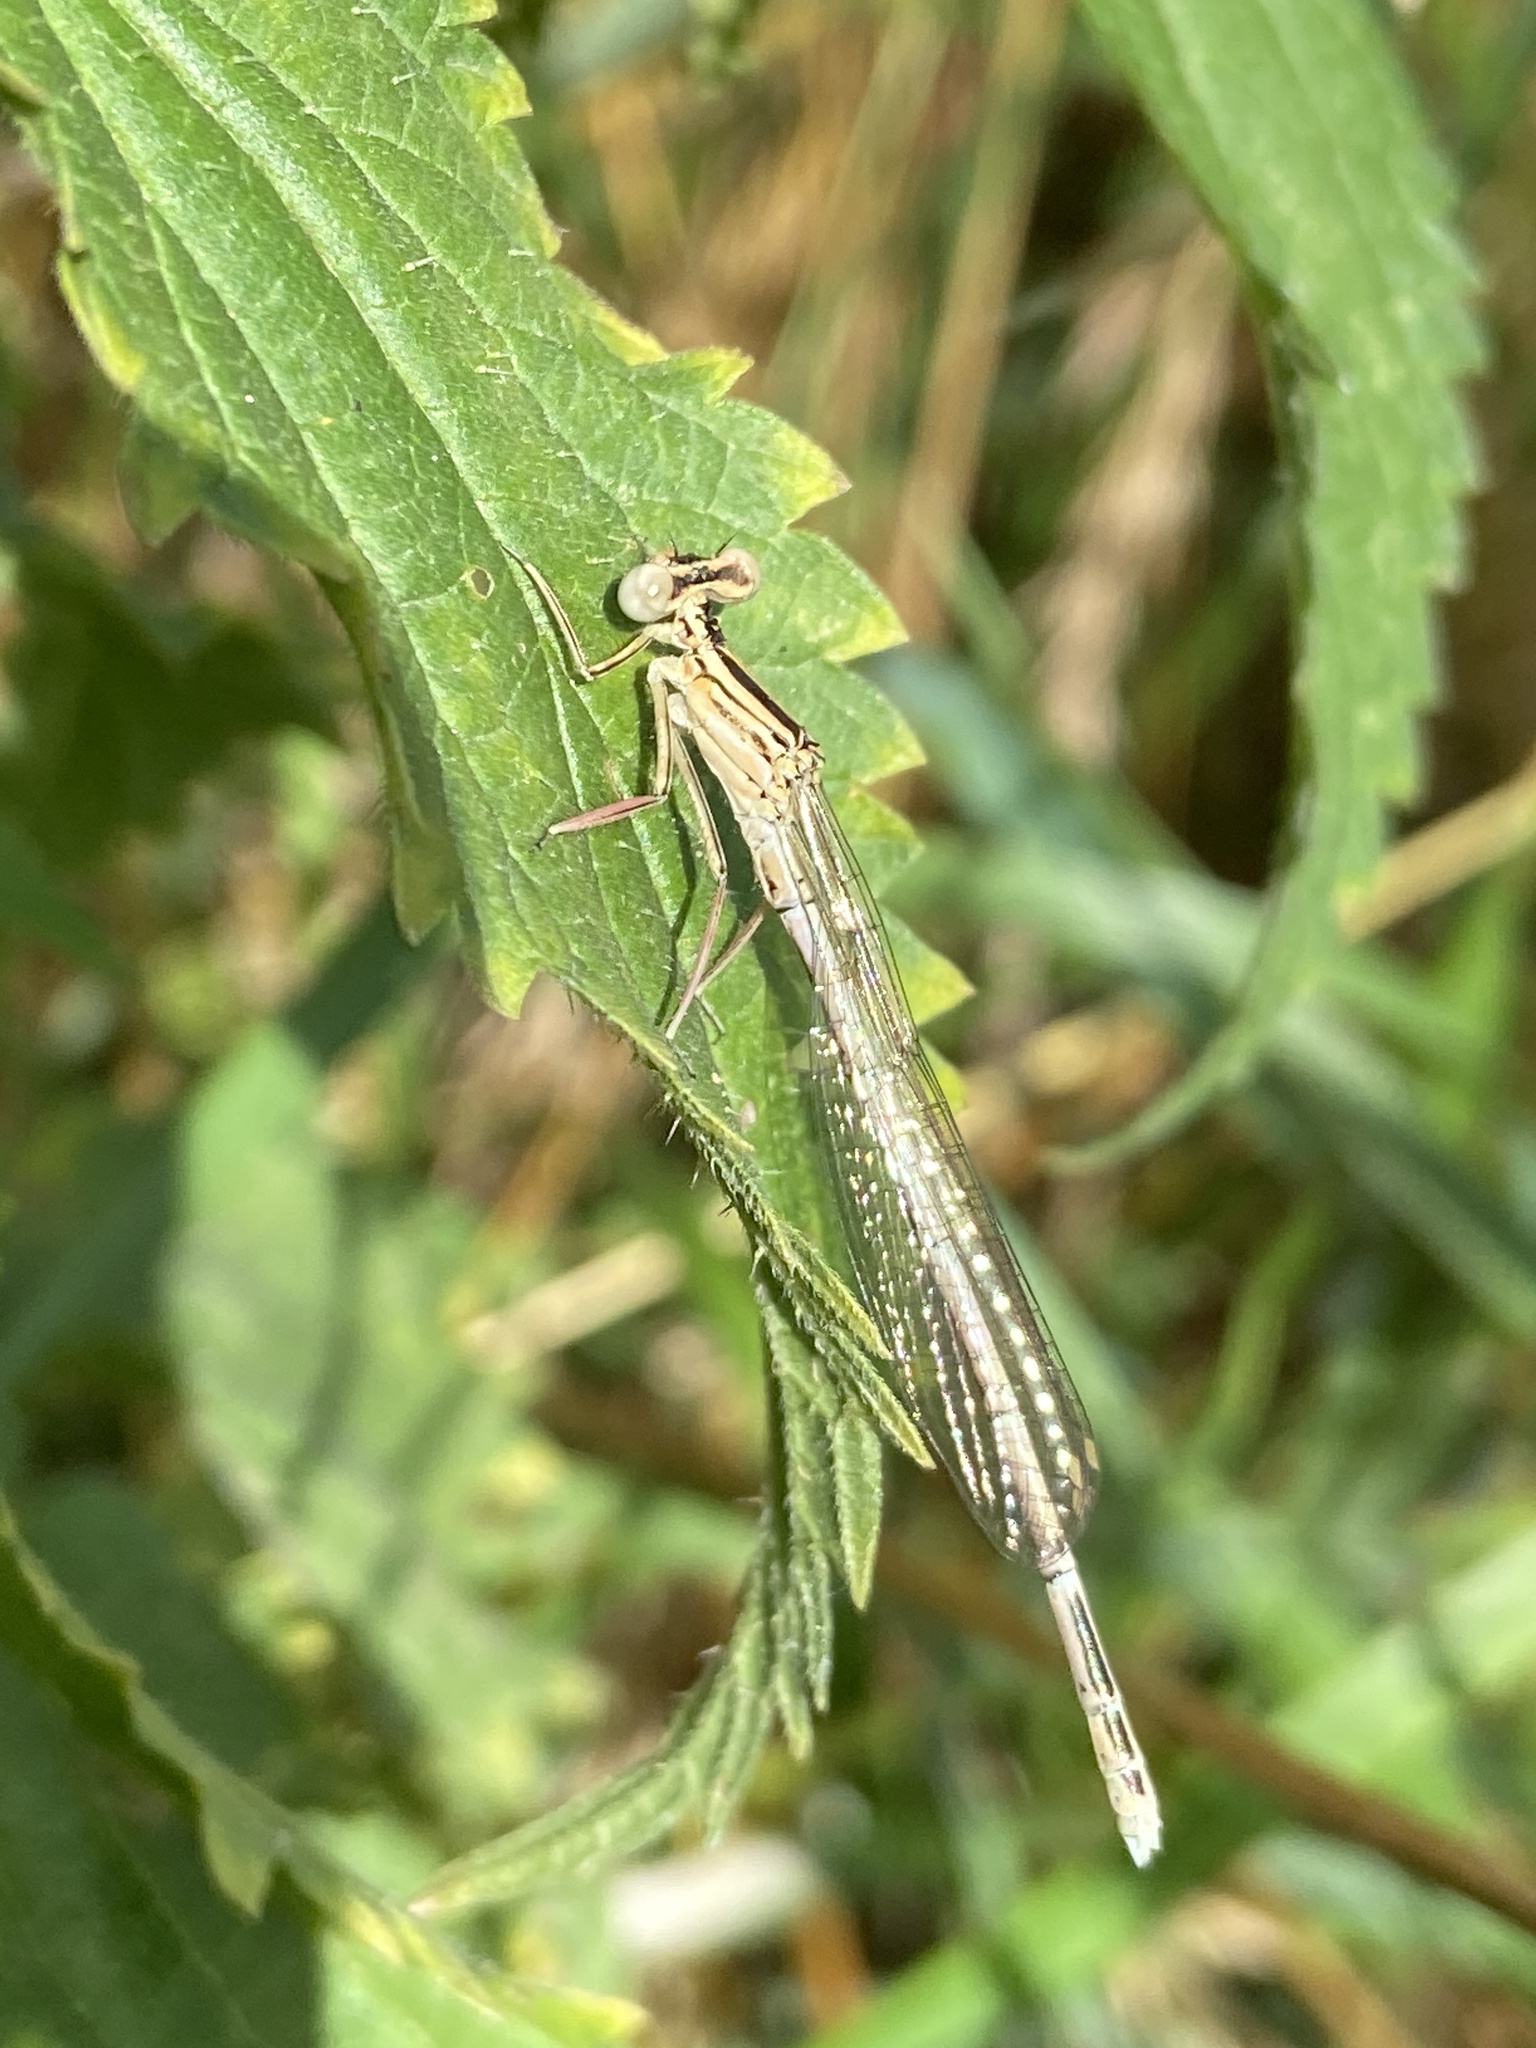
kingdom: Animalia
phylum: Arthropoda
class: Insecta
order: Odonata
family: Platycnemididae
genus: Platycnemis
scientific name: Platycnemis pennipes
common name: White-legged damselfly
